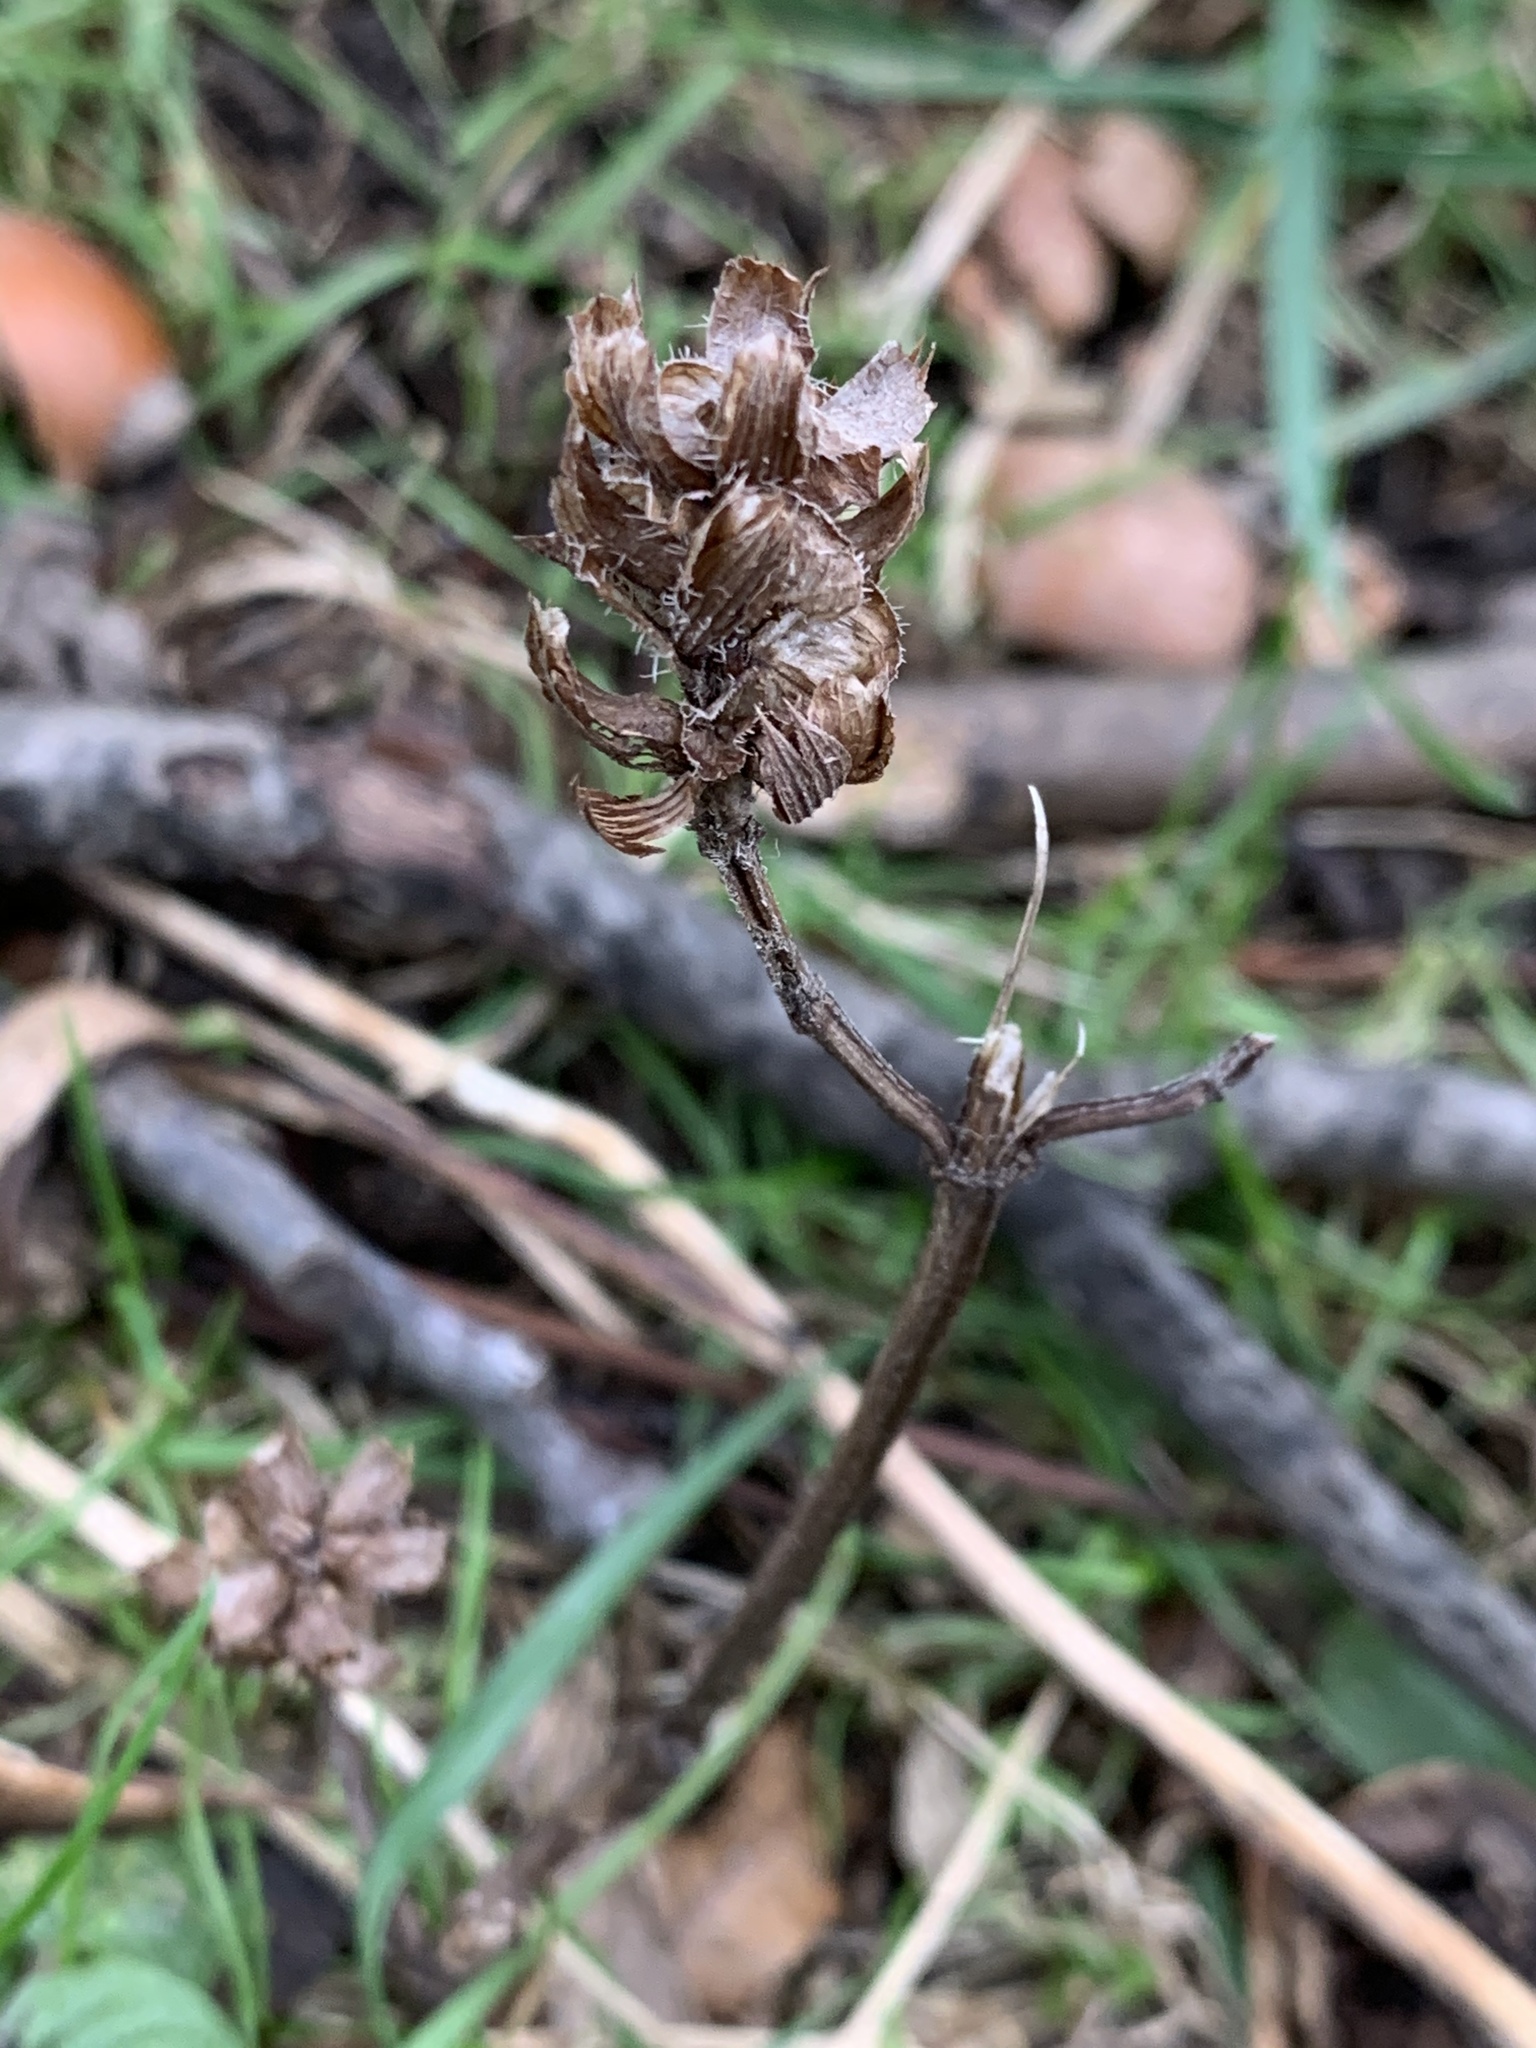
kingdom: Plantae
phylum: Tracheophyta
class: Magnoliopsida
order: Lamiales
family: Lamiaceae
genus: Prunella
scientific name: Prunella vulgaris
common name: Heal-all
